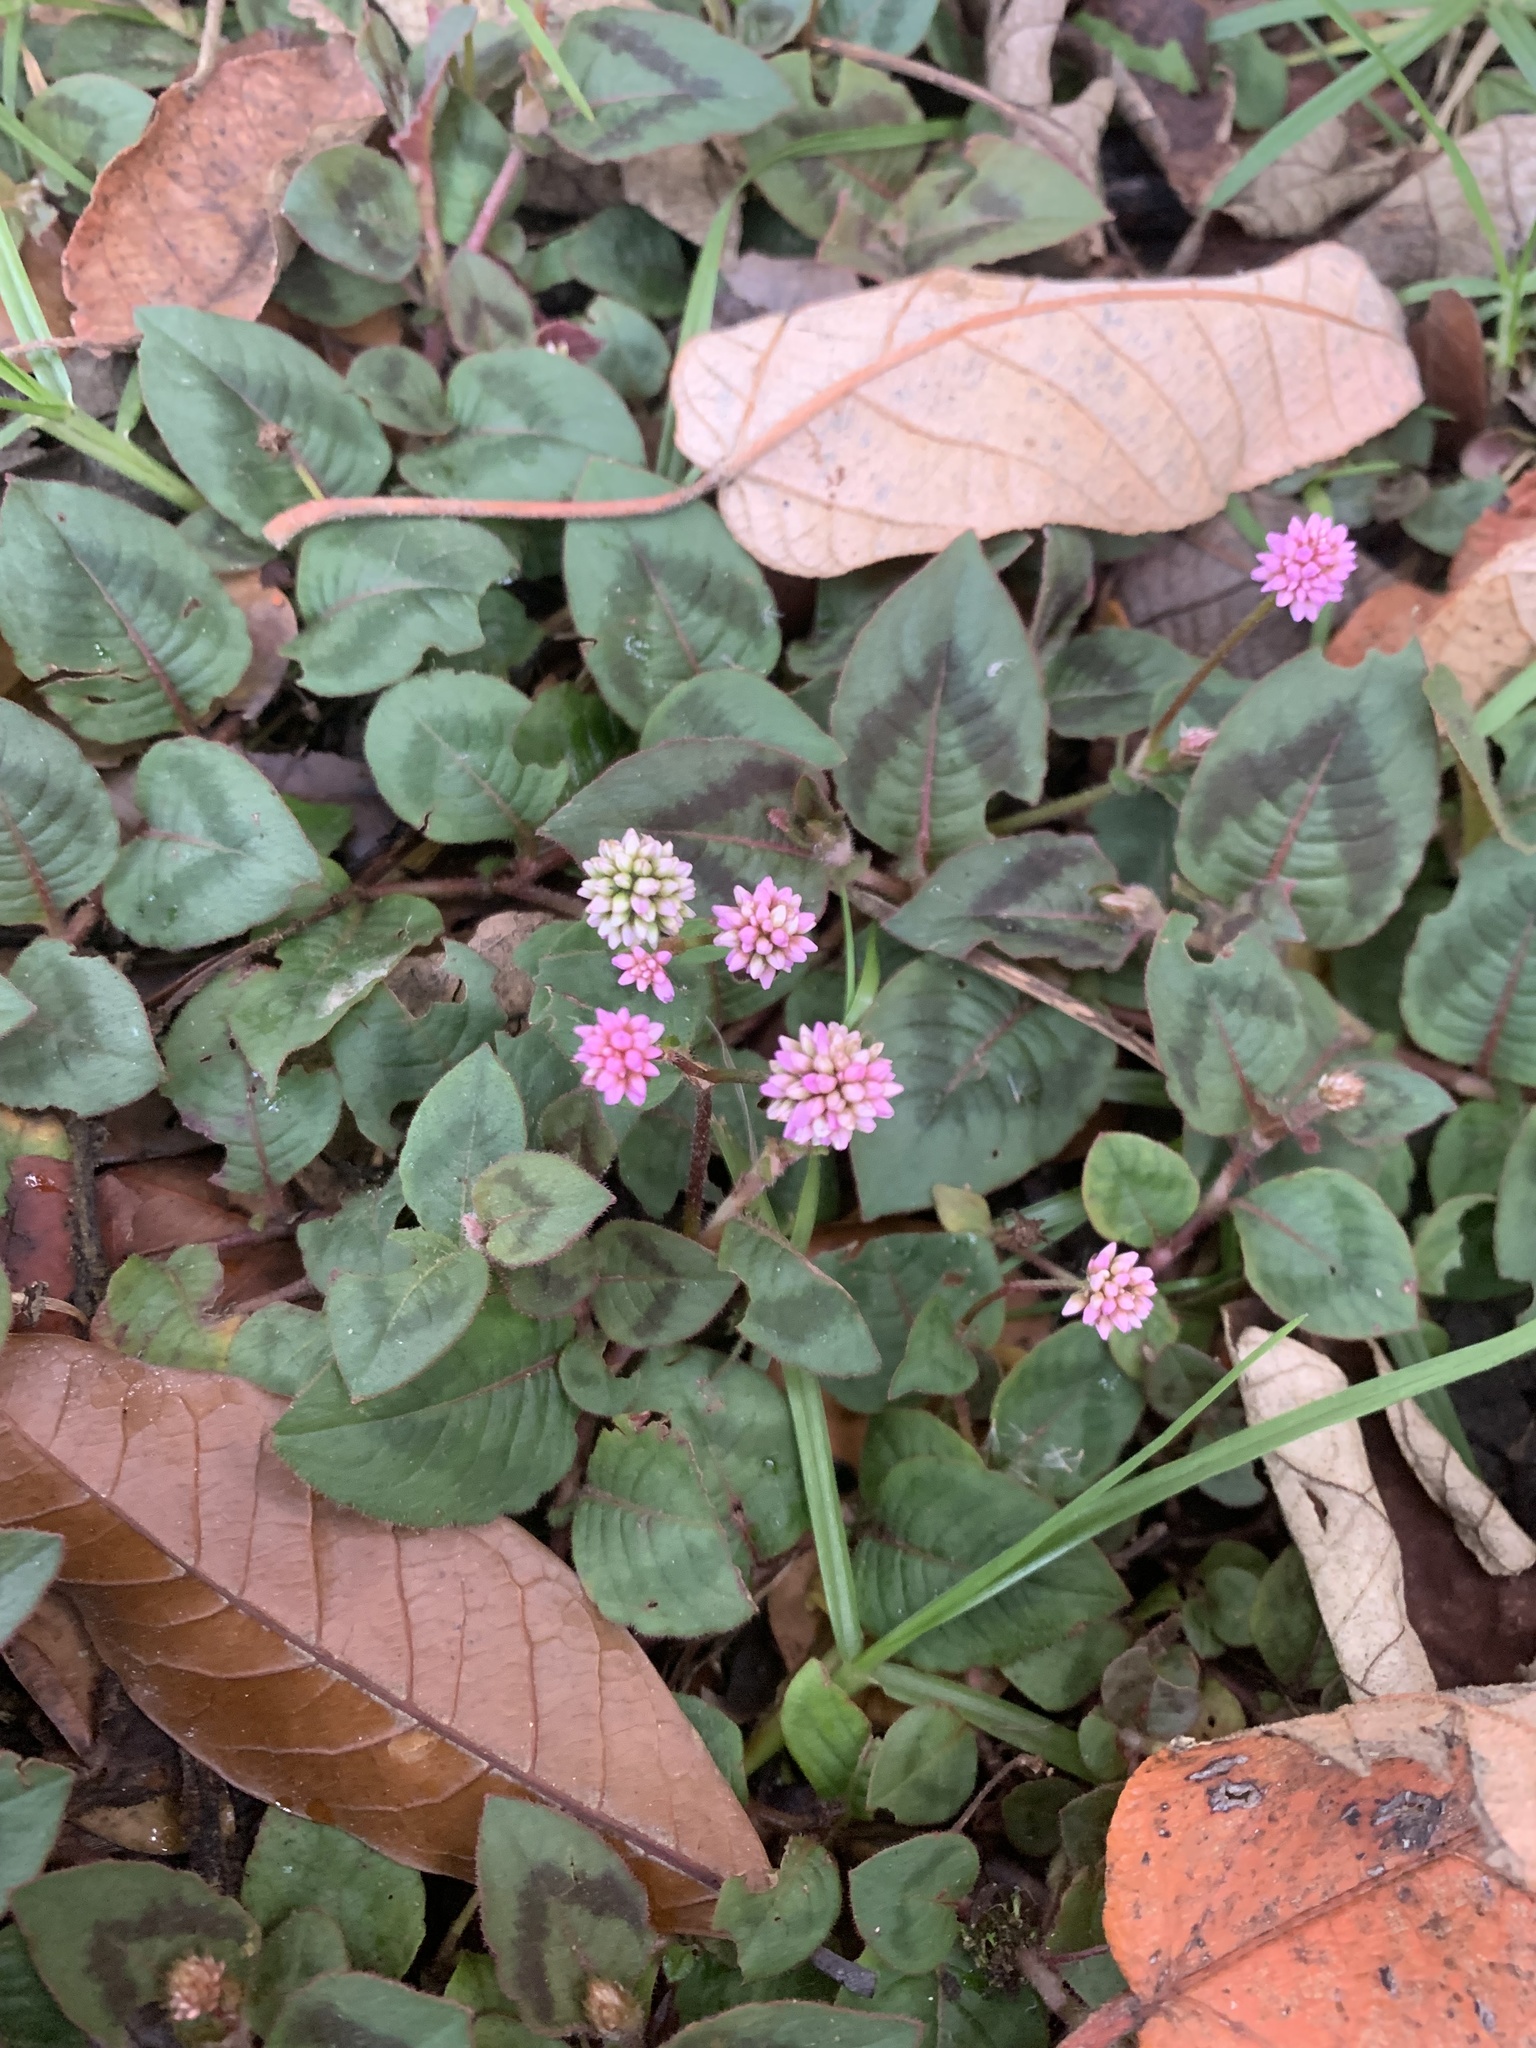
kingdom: Plantae
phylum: Tracheophyta
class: Magnoliopsida
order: Caryophyllales
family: Polygonaceae
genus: Persicaria
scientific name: Persicaria capitata
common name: Pinkhead smartweed
